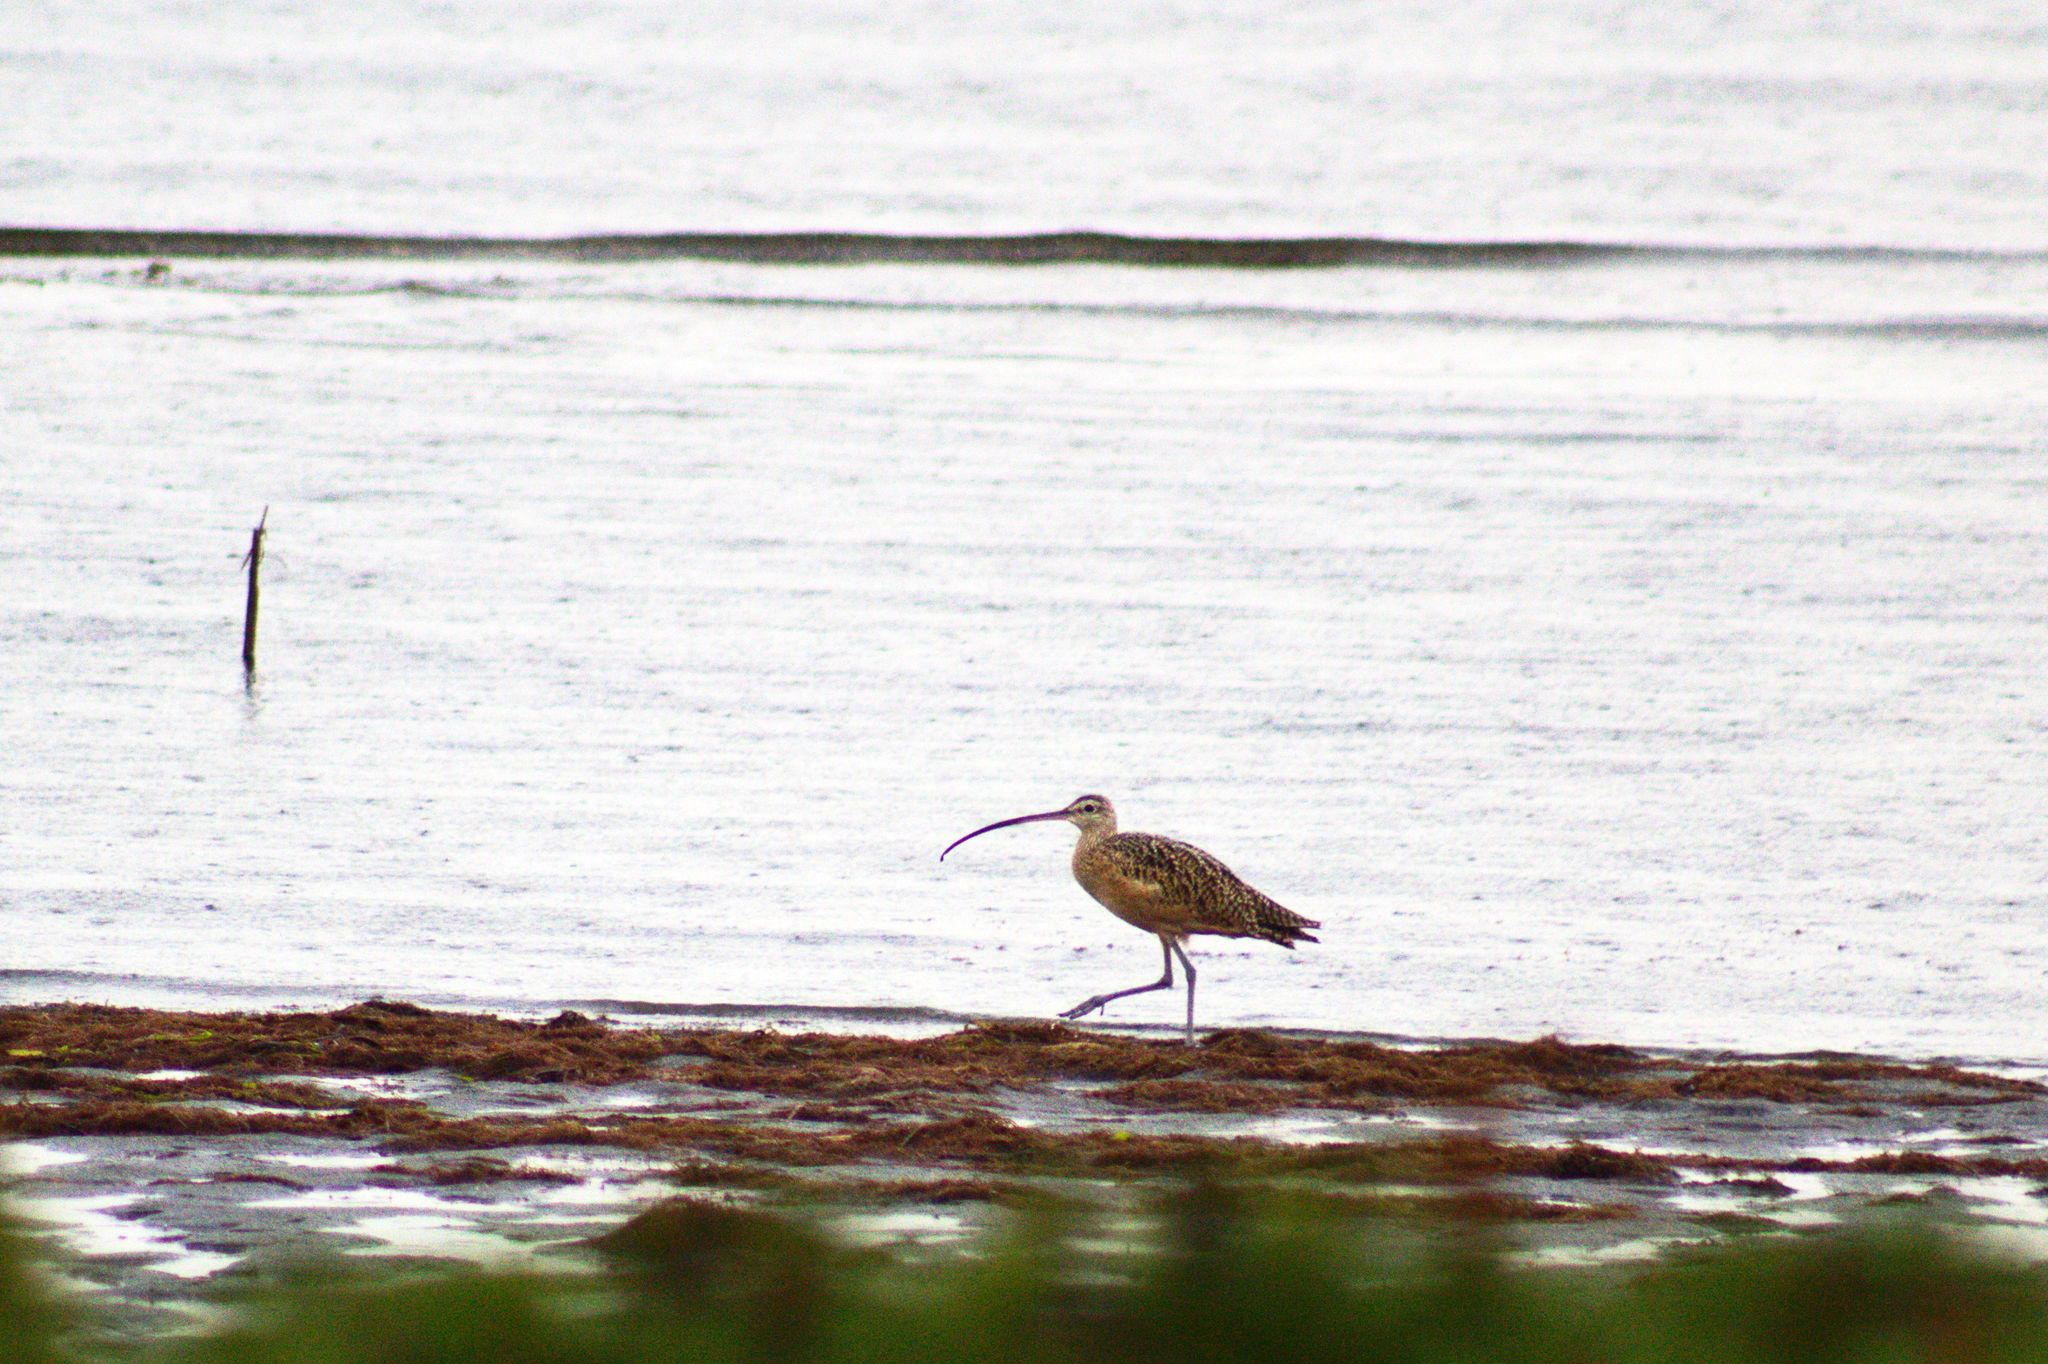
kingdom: Animalia
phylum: Chordata
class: Aves
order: Charadriiformes
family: Scolopacidae
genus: Numenius
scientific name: Numenius americanus
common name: Long-billed curlew
